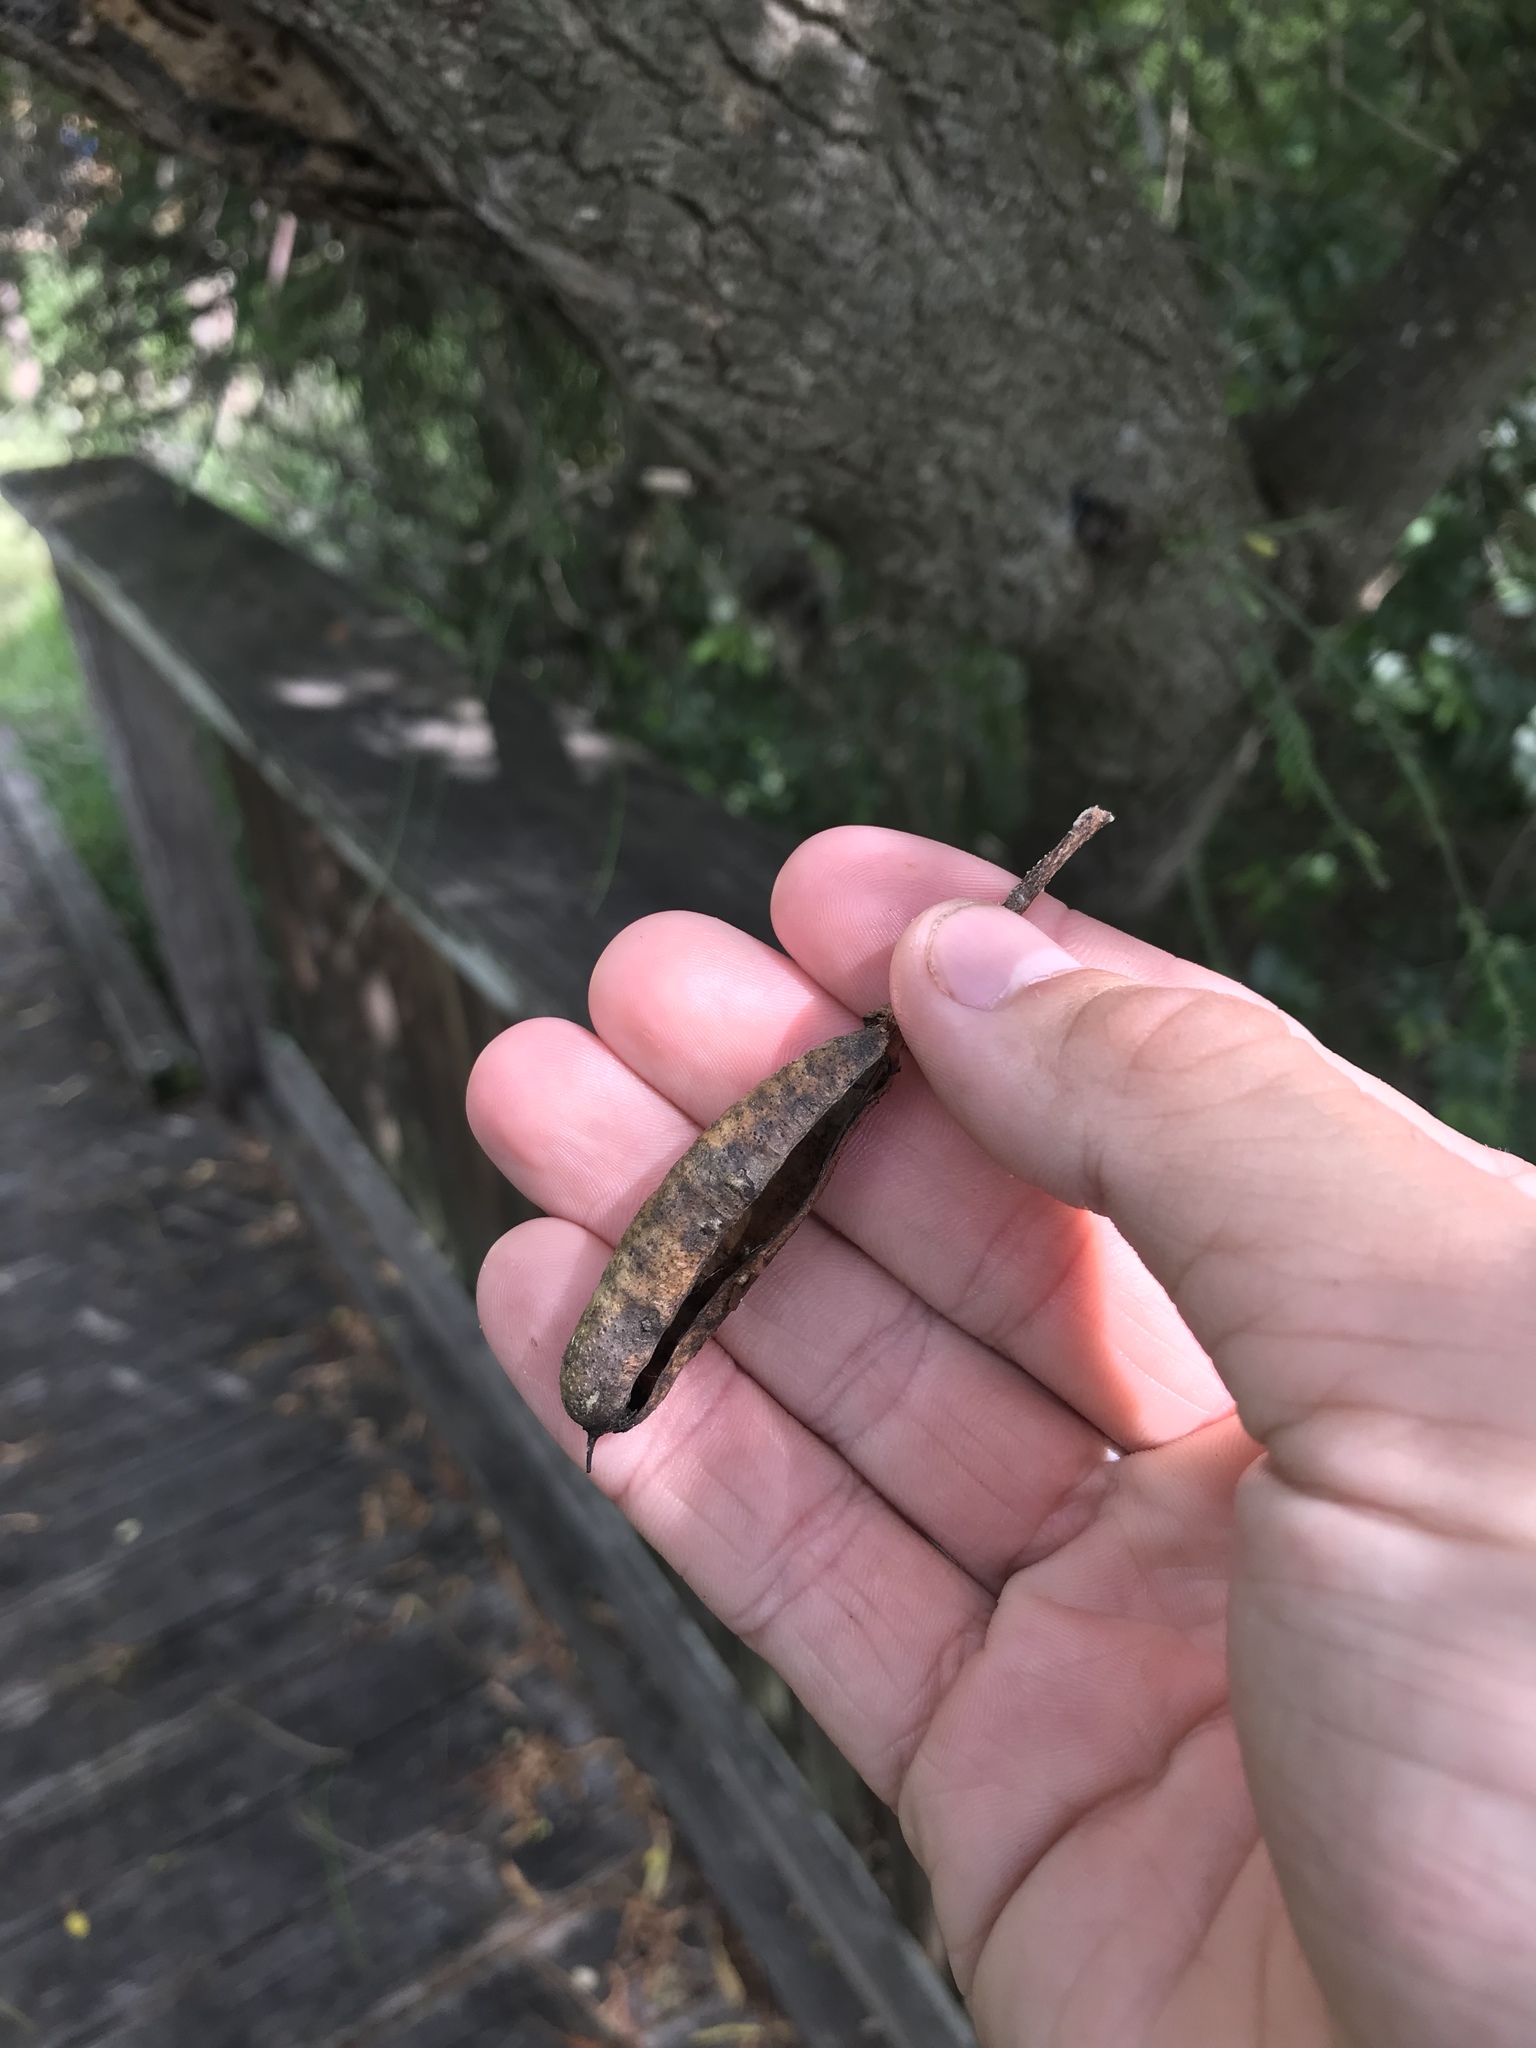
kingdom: Plantae
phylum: Tracheophyta
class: Magnoliopsida
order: Fabales
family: Fabaceae
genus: Senna
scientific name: Senna pendula
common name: Easter cassia
